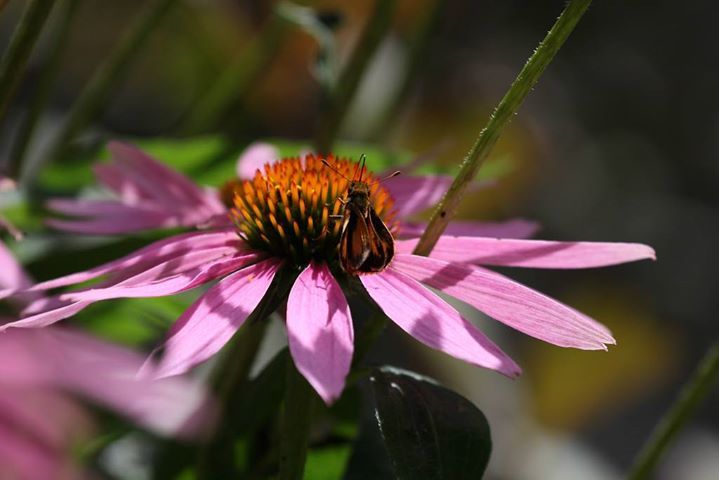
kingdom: Animalia
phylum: Arthropoda
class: Insecta
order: Lepidoptera
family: Hesperiidae
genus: Lon
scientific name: Lon zabulon
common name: Zabulon skipper
